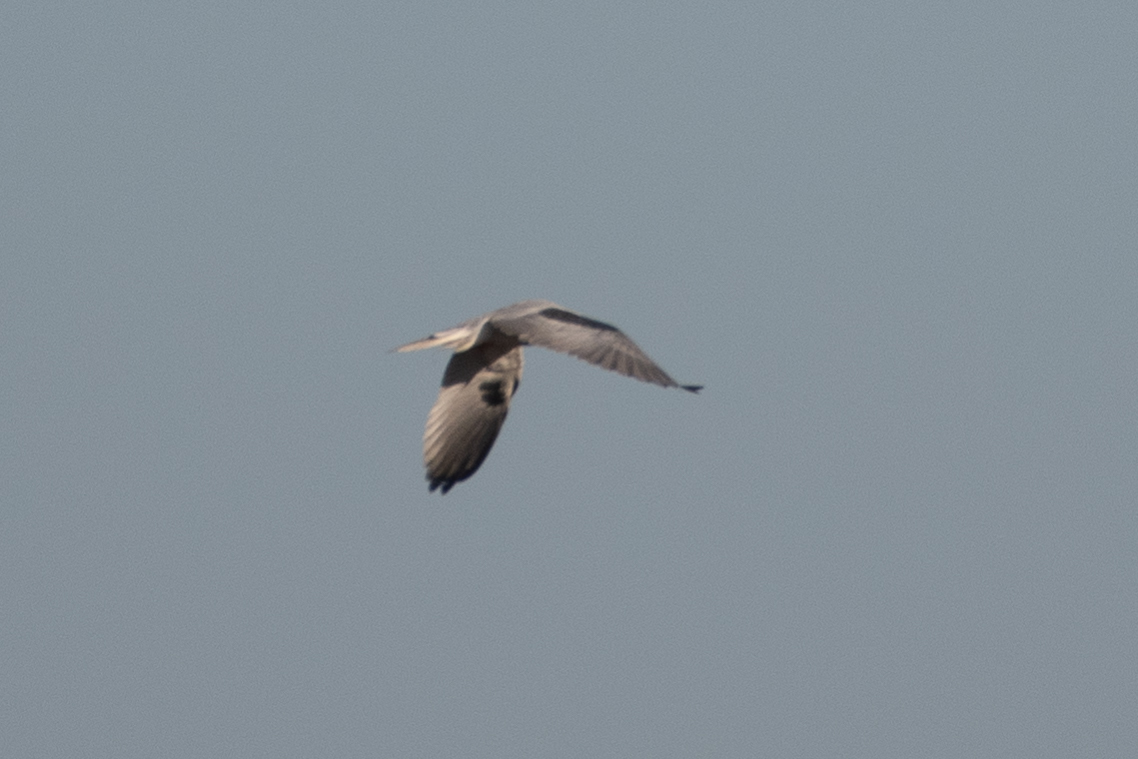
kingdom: Animalia
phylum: Chordata
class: Aves
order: Accipitriformes
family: Accipitridae
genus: Elanus
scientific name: Elanus leucurus
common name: White-tailed kite
